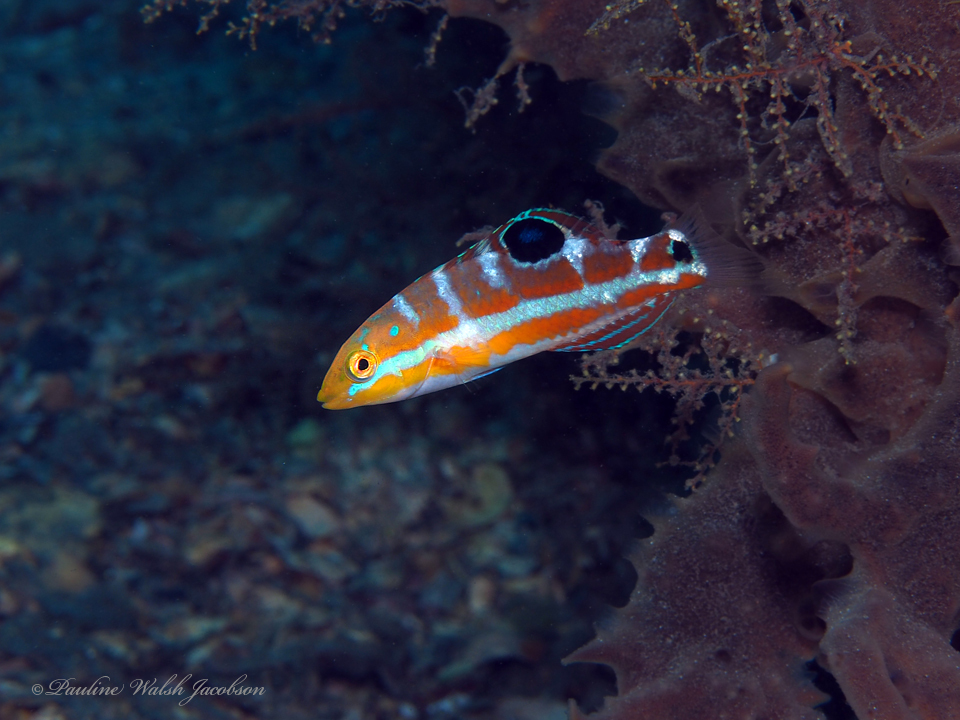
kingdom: Animalia
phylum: Chordata
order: Perciformes
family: Labridae
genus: Halichoeres
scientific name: Halichoeres radiatus
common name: Puddingwife
